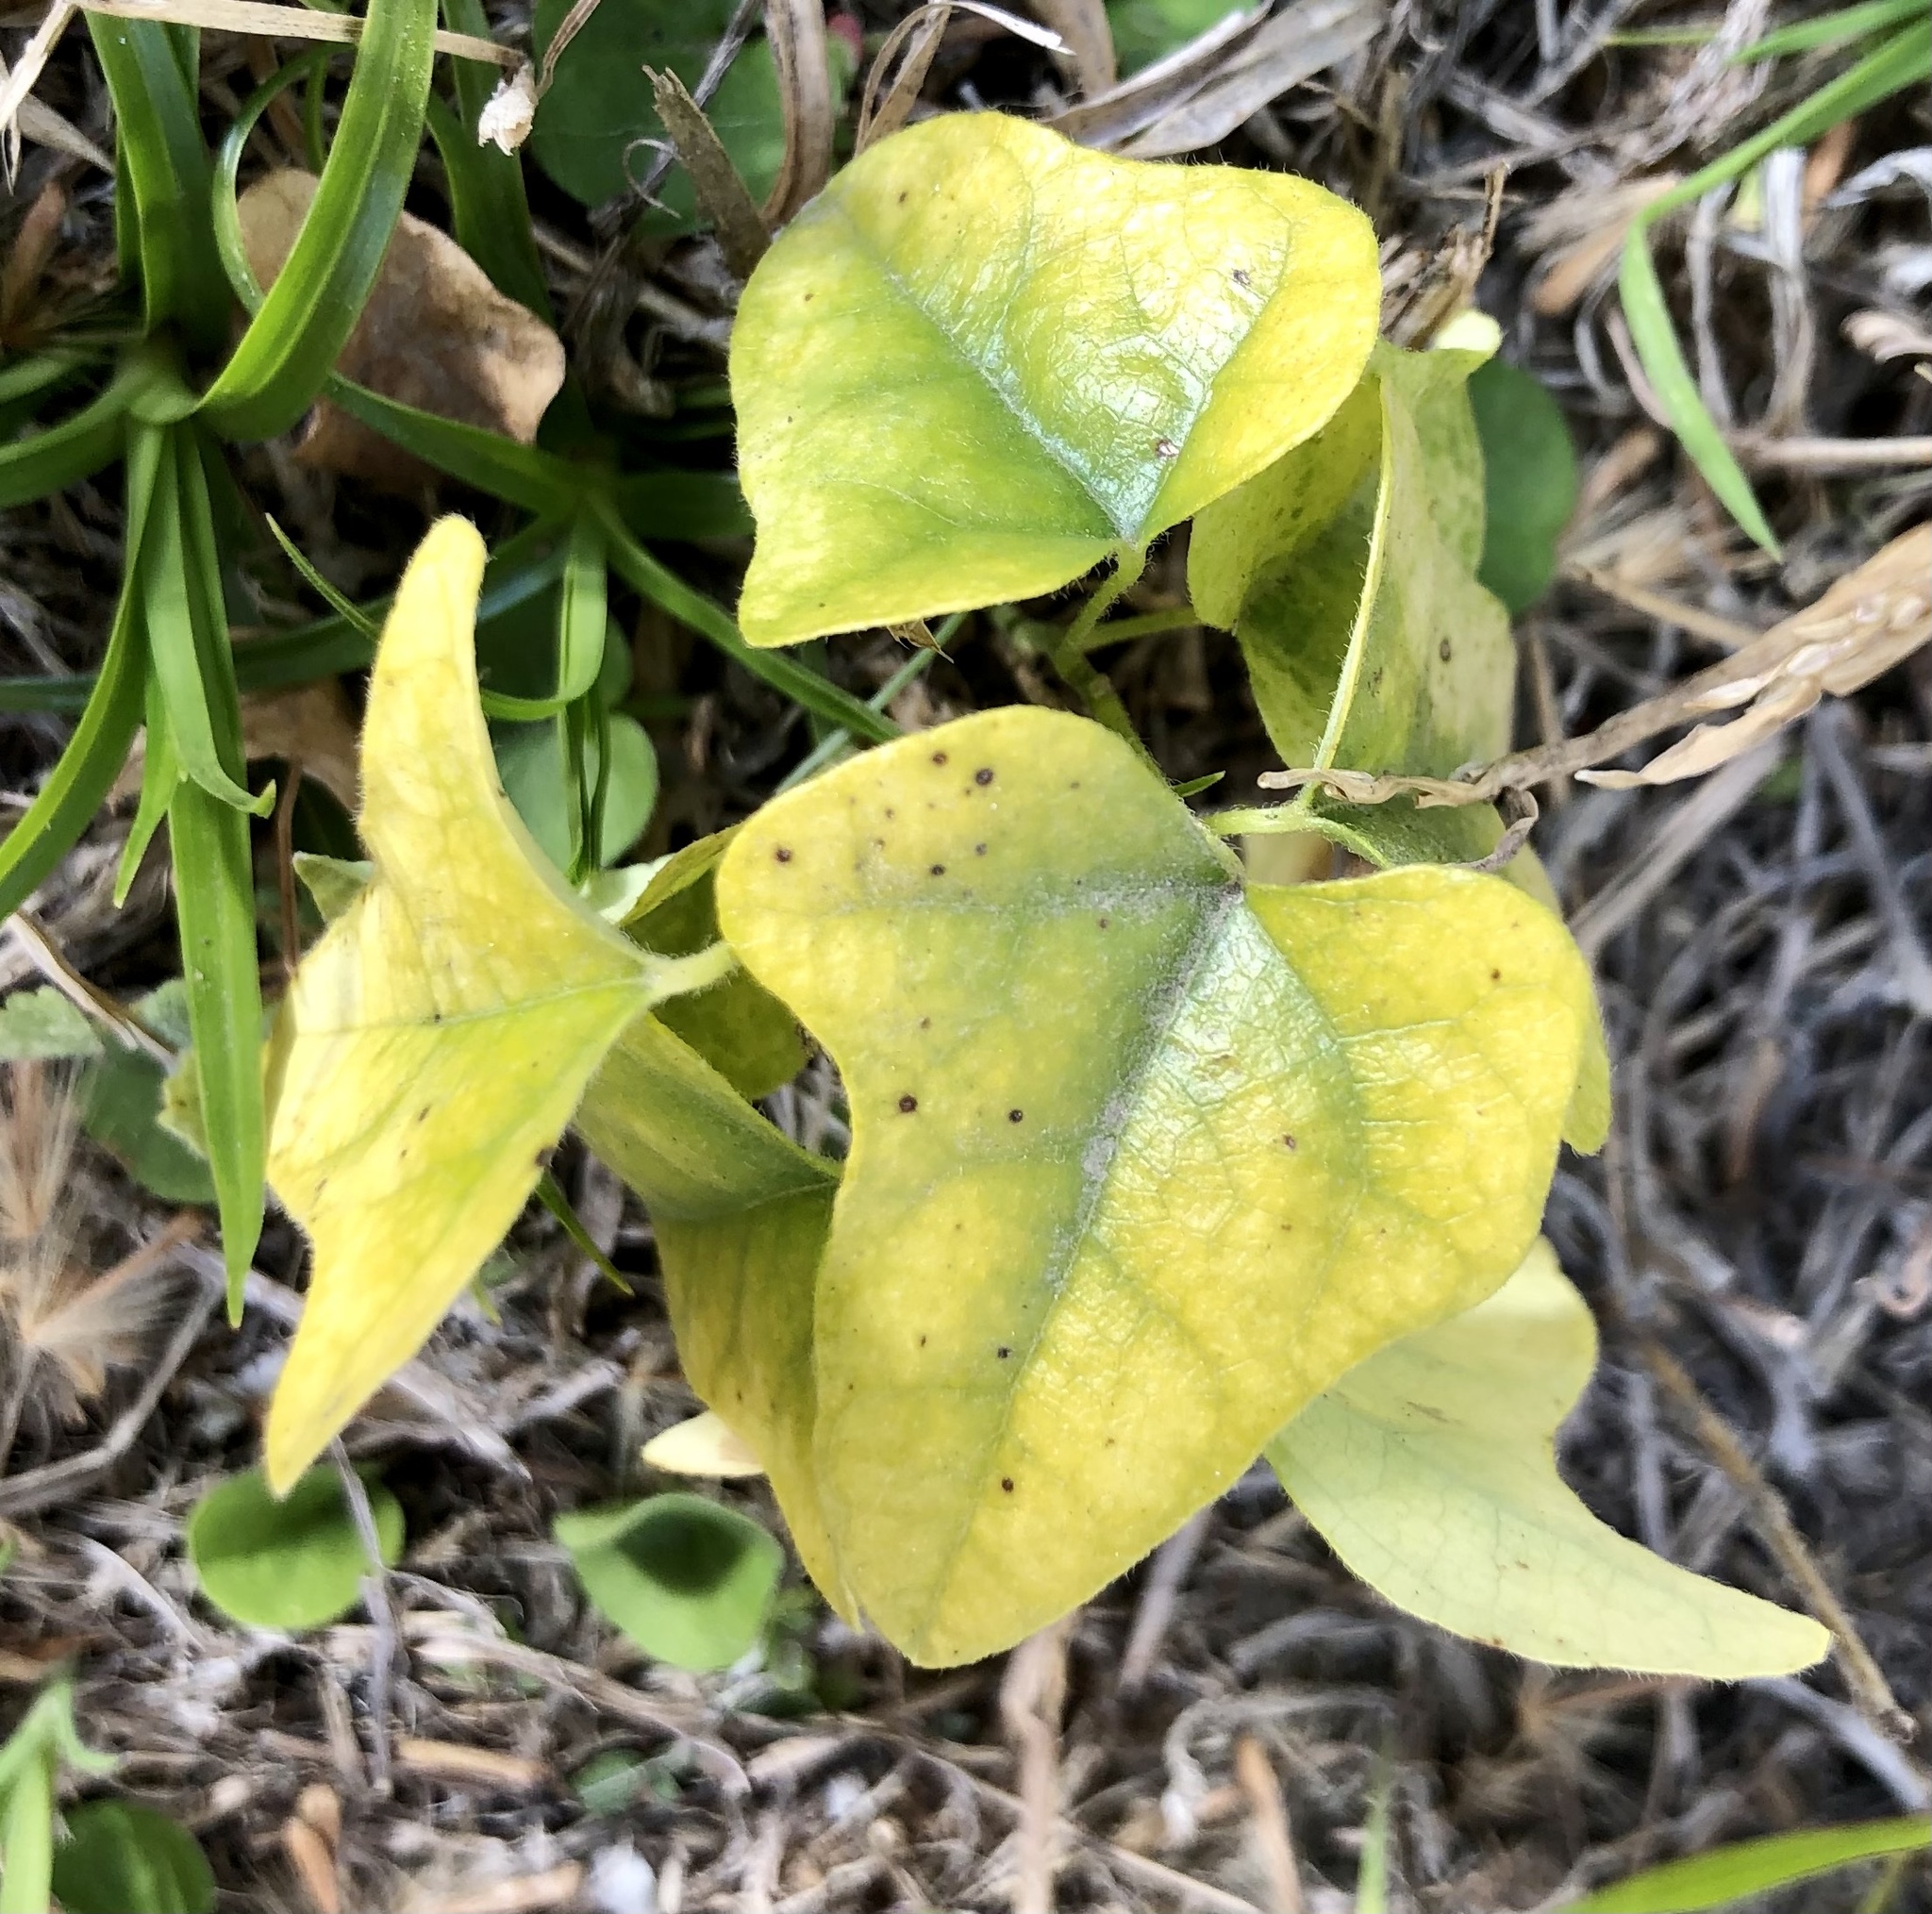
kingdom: Plantae
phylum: Tracheophyta
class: Magnoliopsida
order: Ranunculales
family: Menispermaceae
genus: Cocculus
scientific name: Cocculus carolinus
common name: Carolina moonseed
